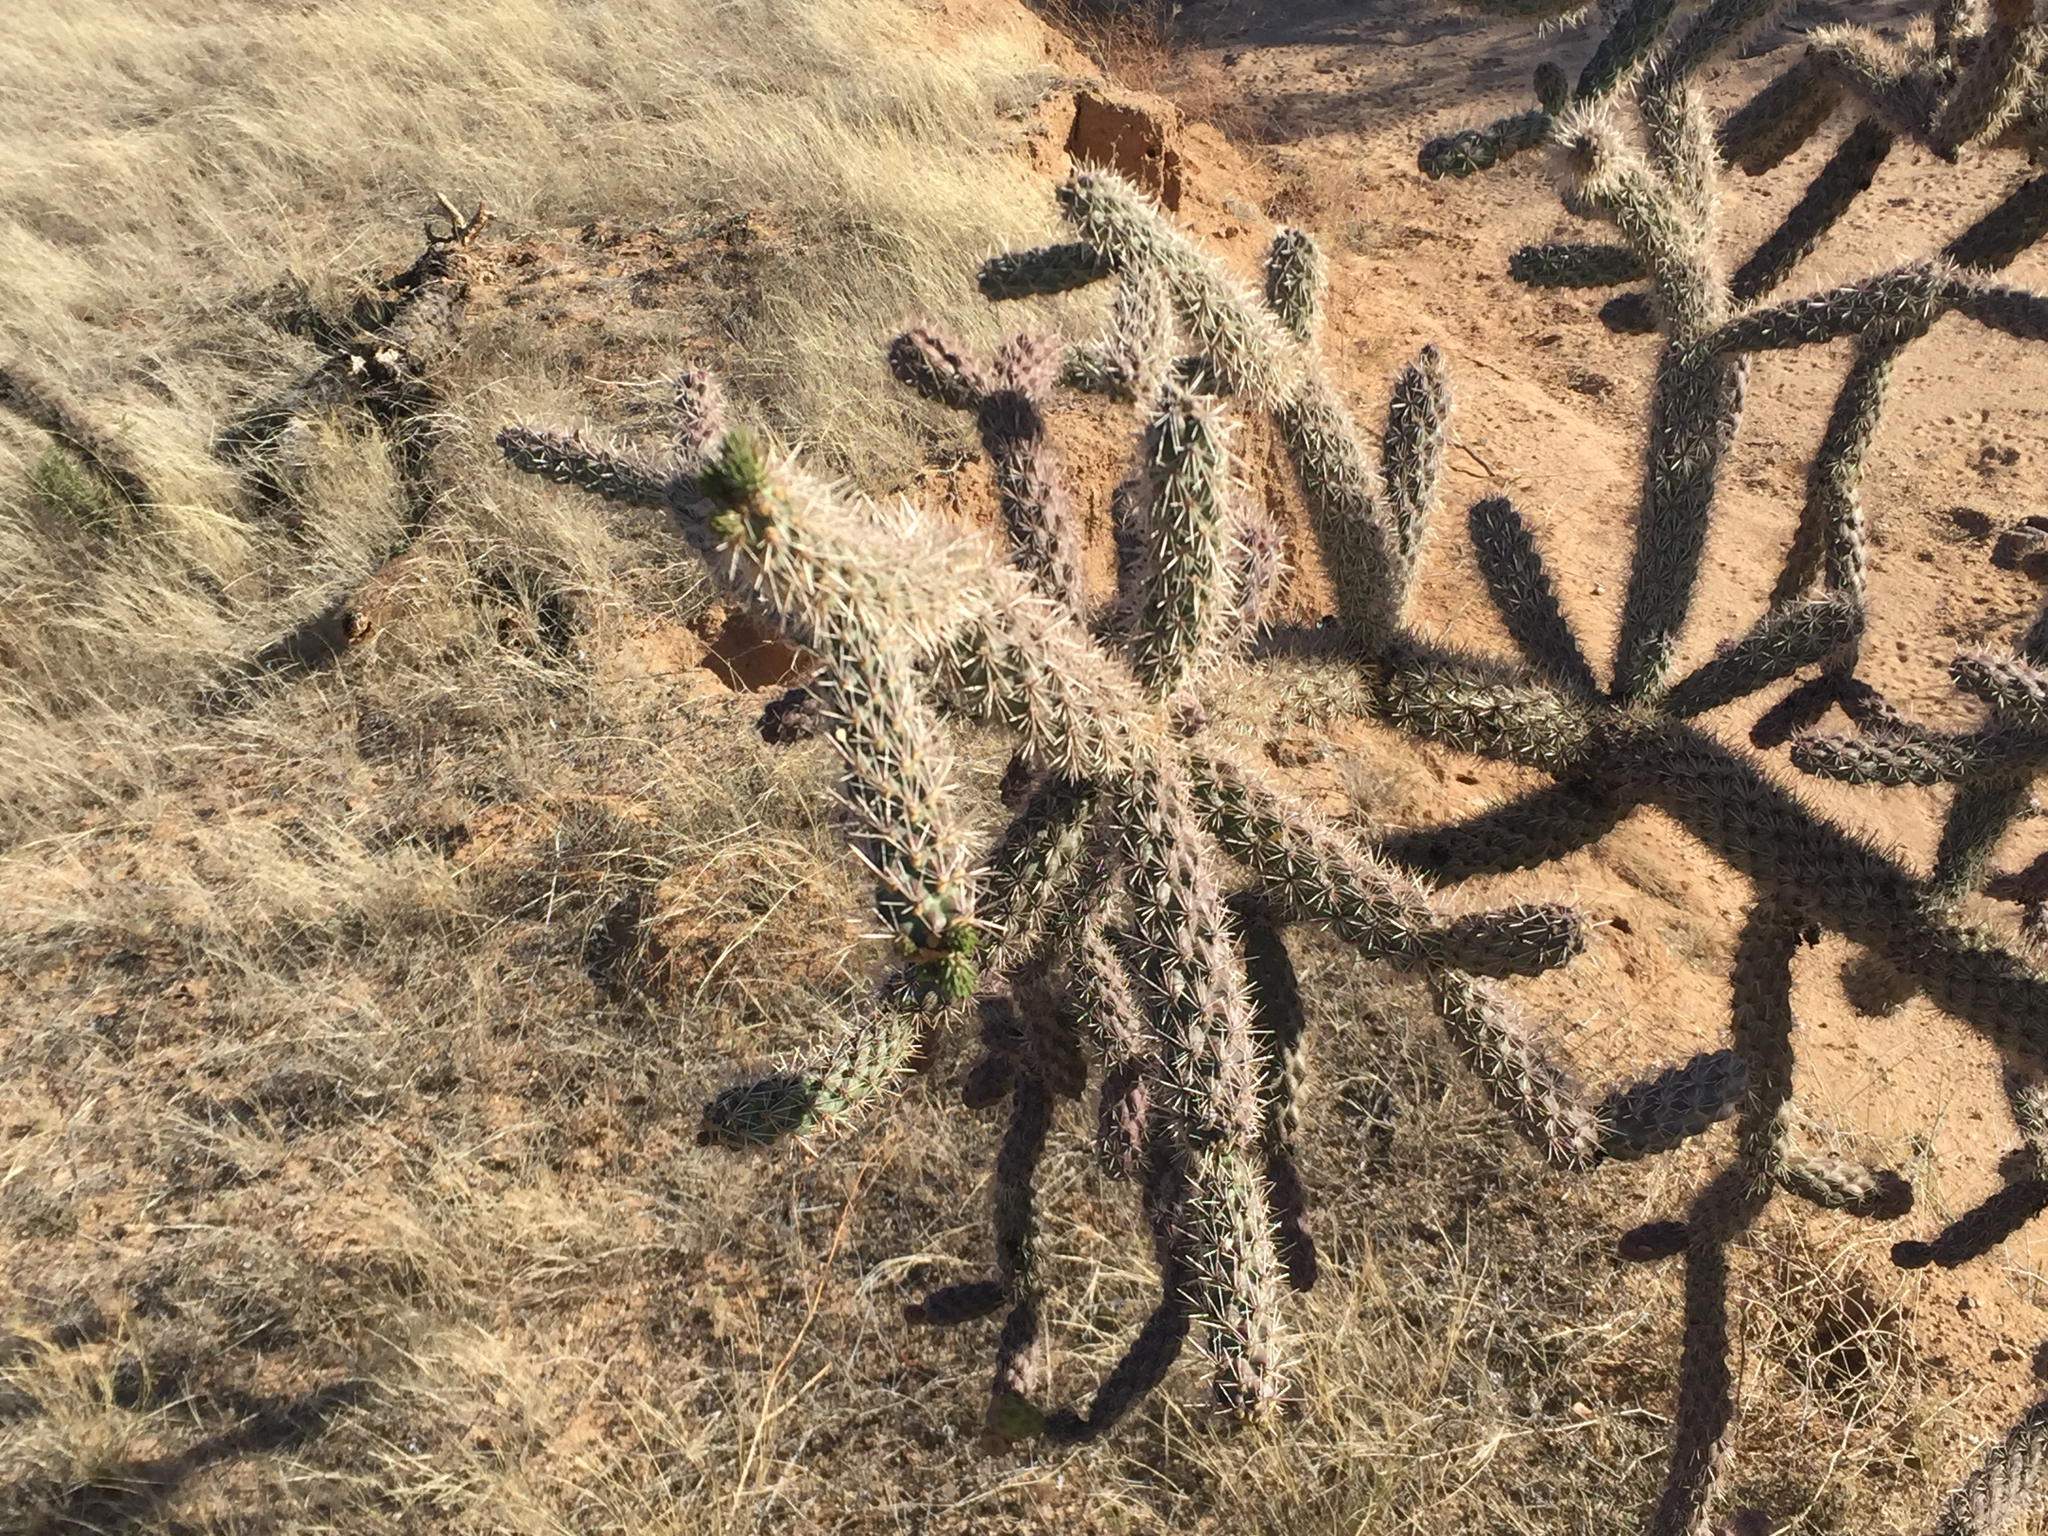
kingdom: Plantae
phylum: Tracheophyta
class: Magnoliopsida
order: Caryophyllales
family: Cactaceae
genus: Cylindropuntia
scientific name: Cylindropuntia imbricata
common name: Candelabrum cactus
